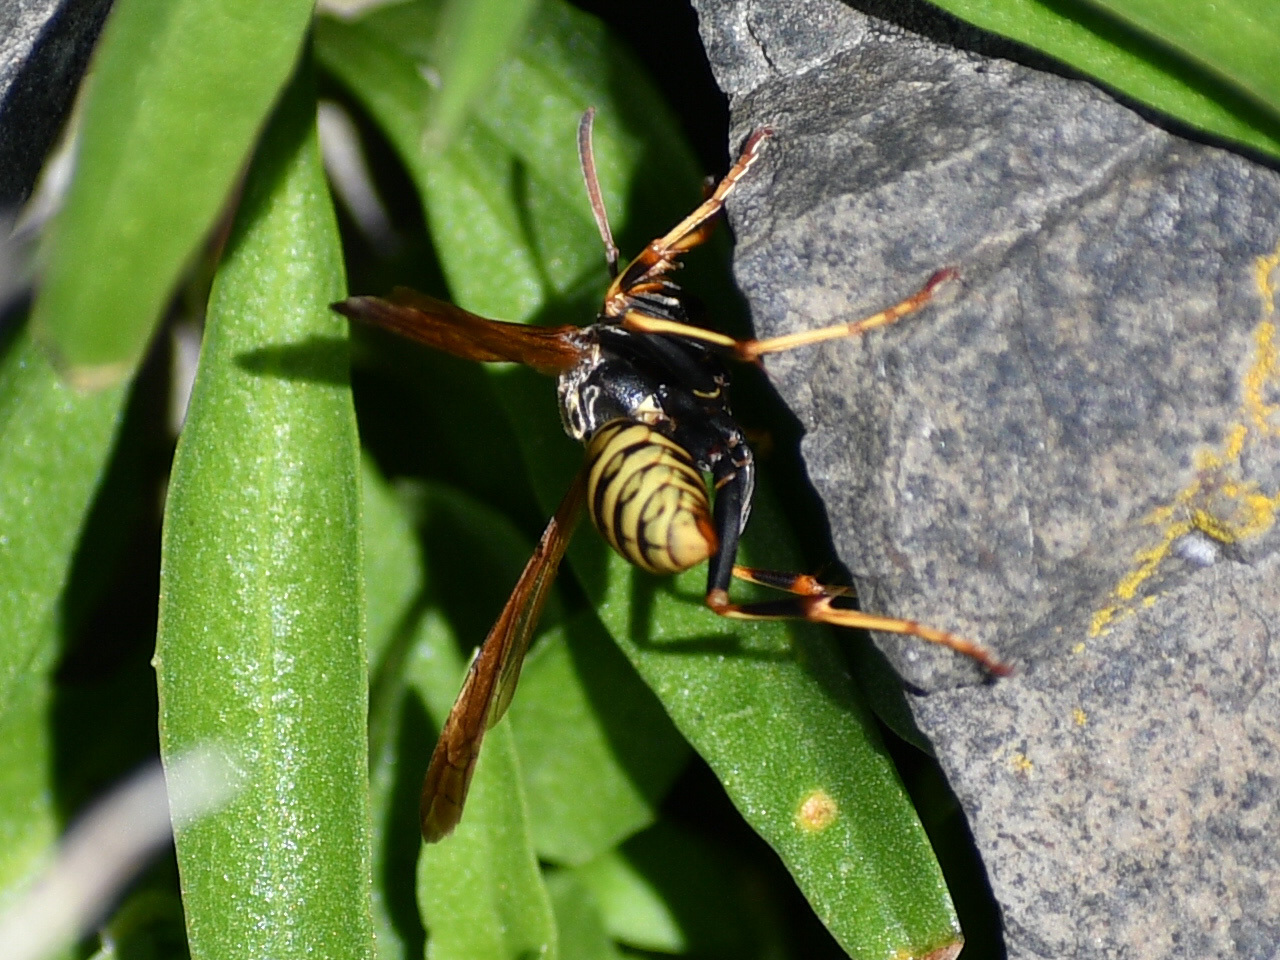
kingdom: Animalia
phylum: Arthropoda
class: Insecta
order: Hymenoptera
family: Vespidae
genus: Mischocyttarus
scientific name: Mischocyttarus flavitarsis
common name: Wasp
